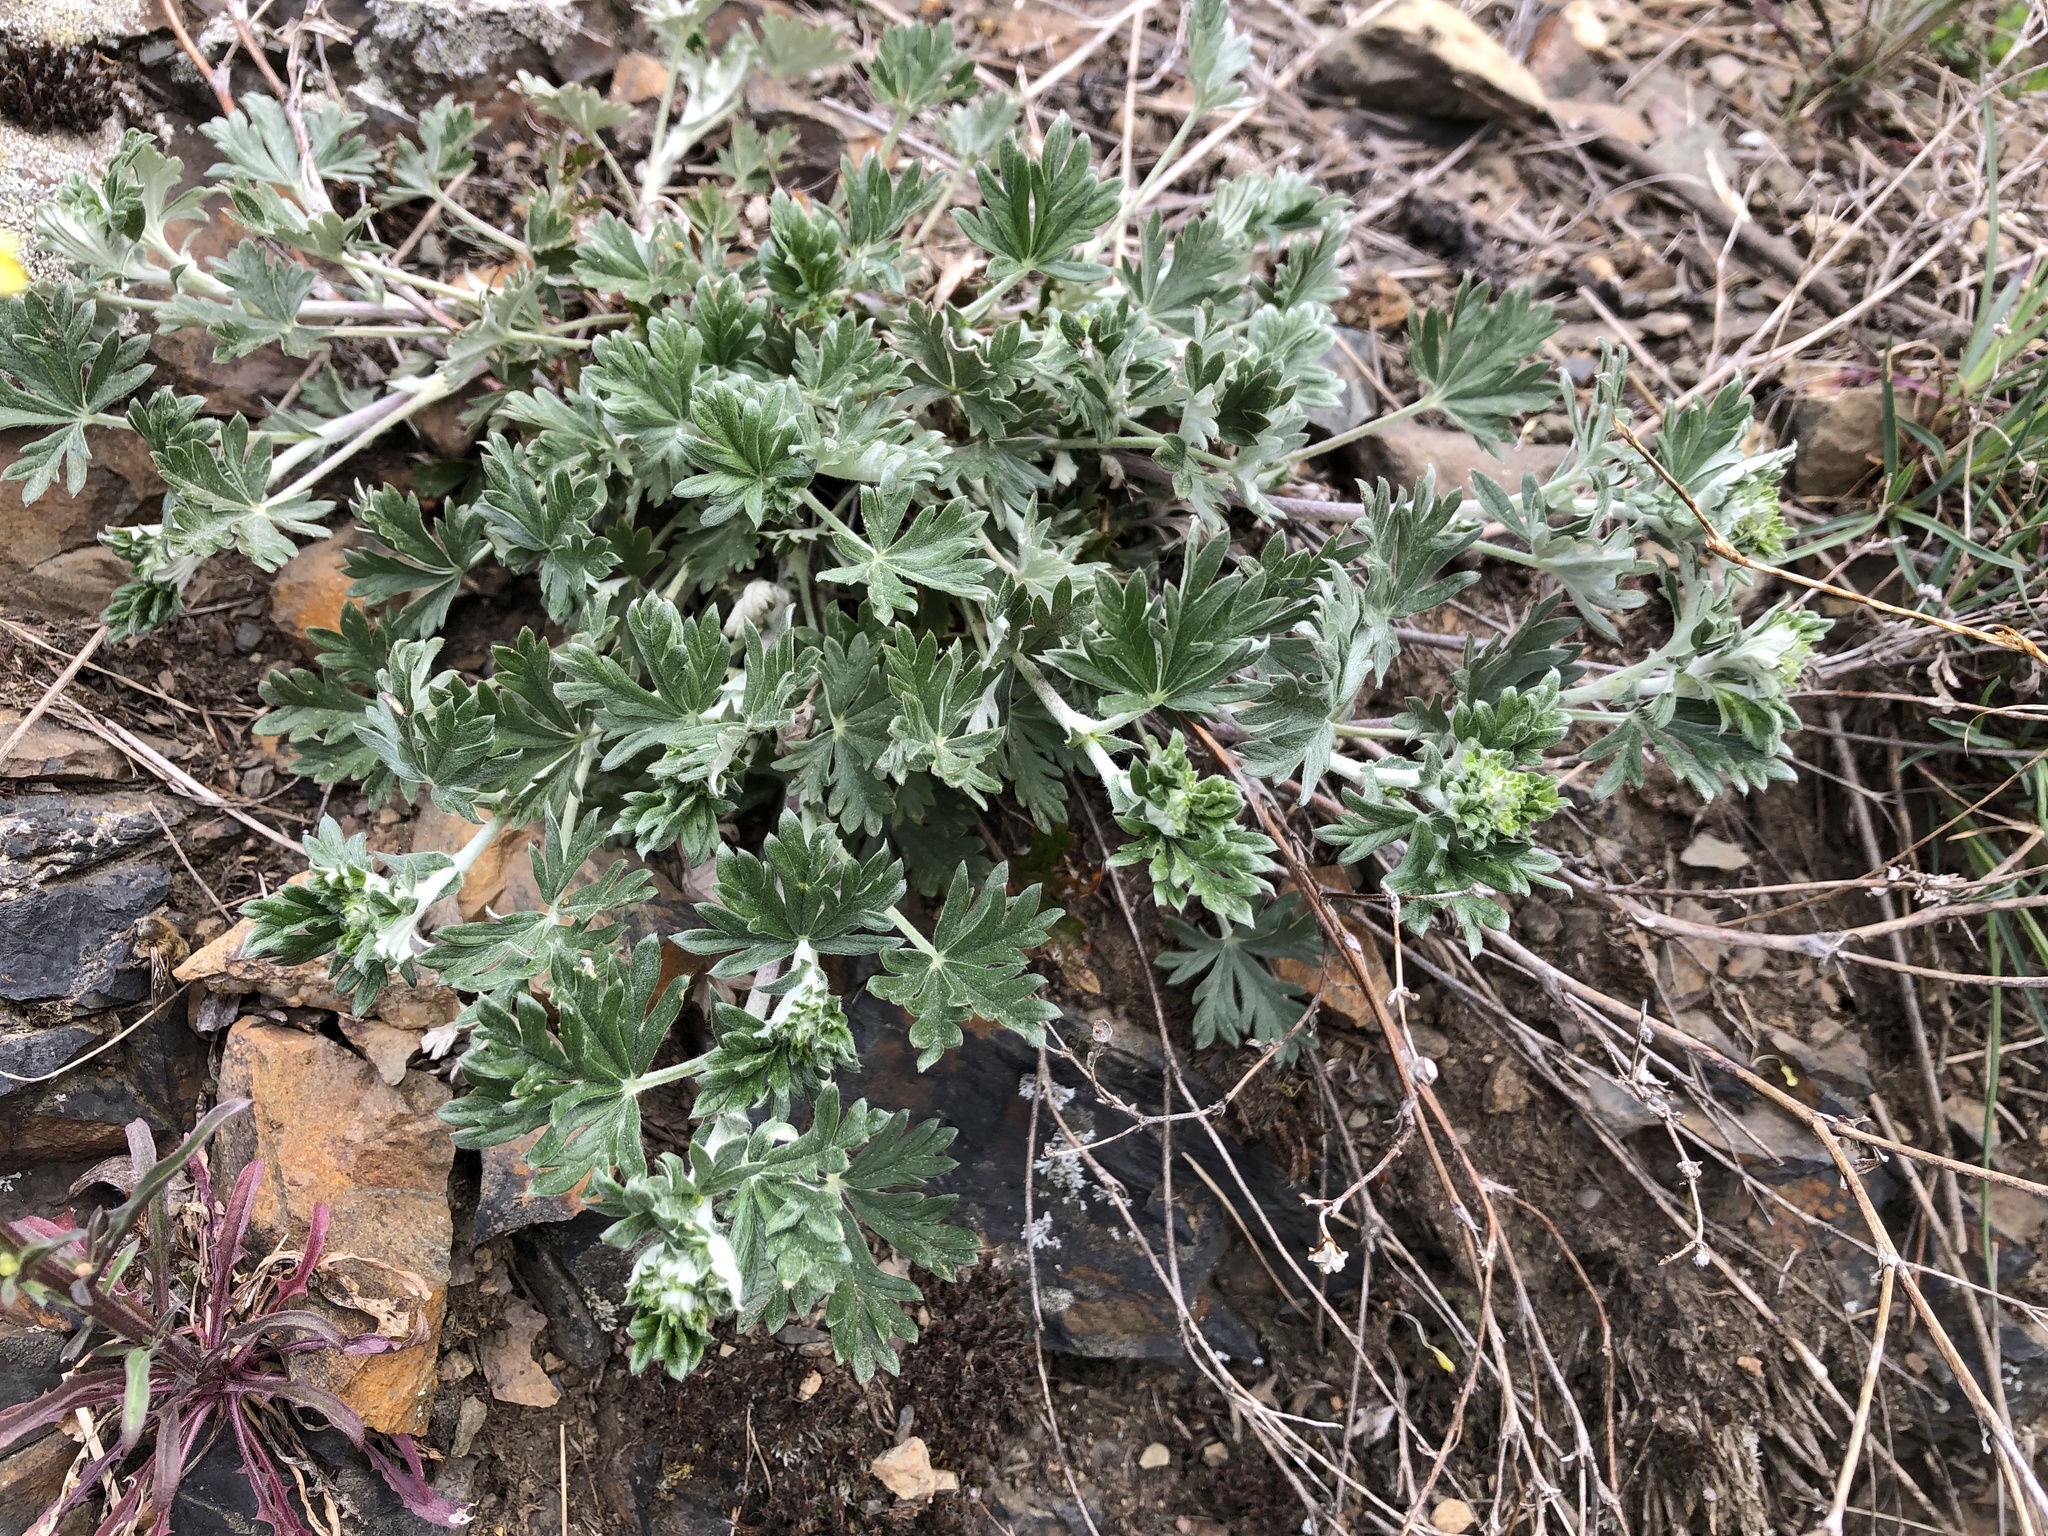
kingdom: Plantae
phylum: Tracheophyta
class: Magnoliopsida
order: Rosales
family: Rosaceae
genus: Potentilla
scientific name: Potentilla argentea
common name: Hoary cinquefoil
